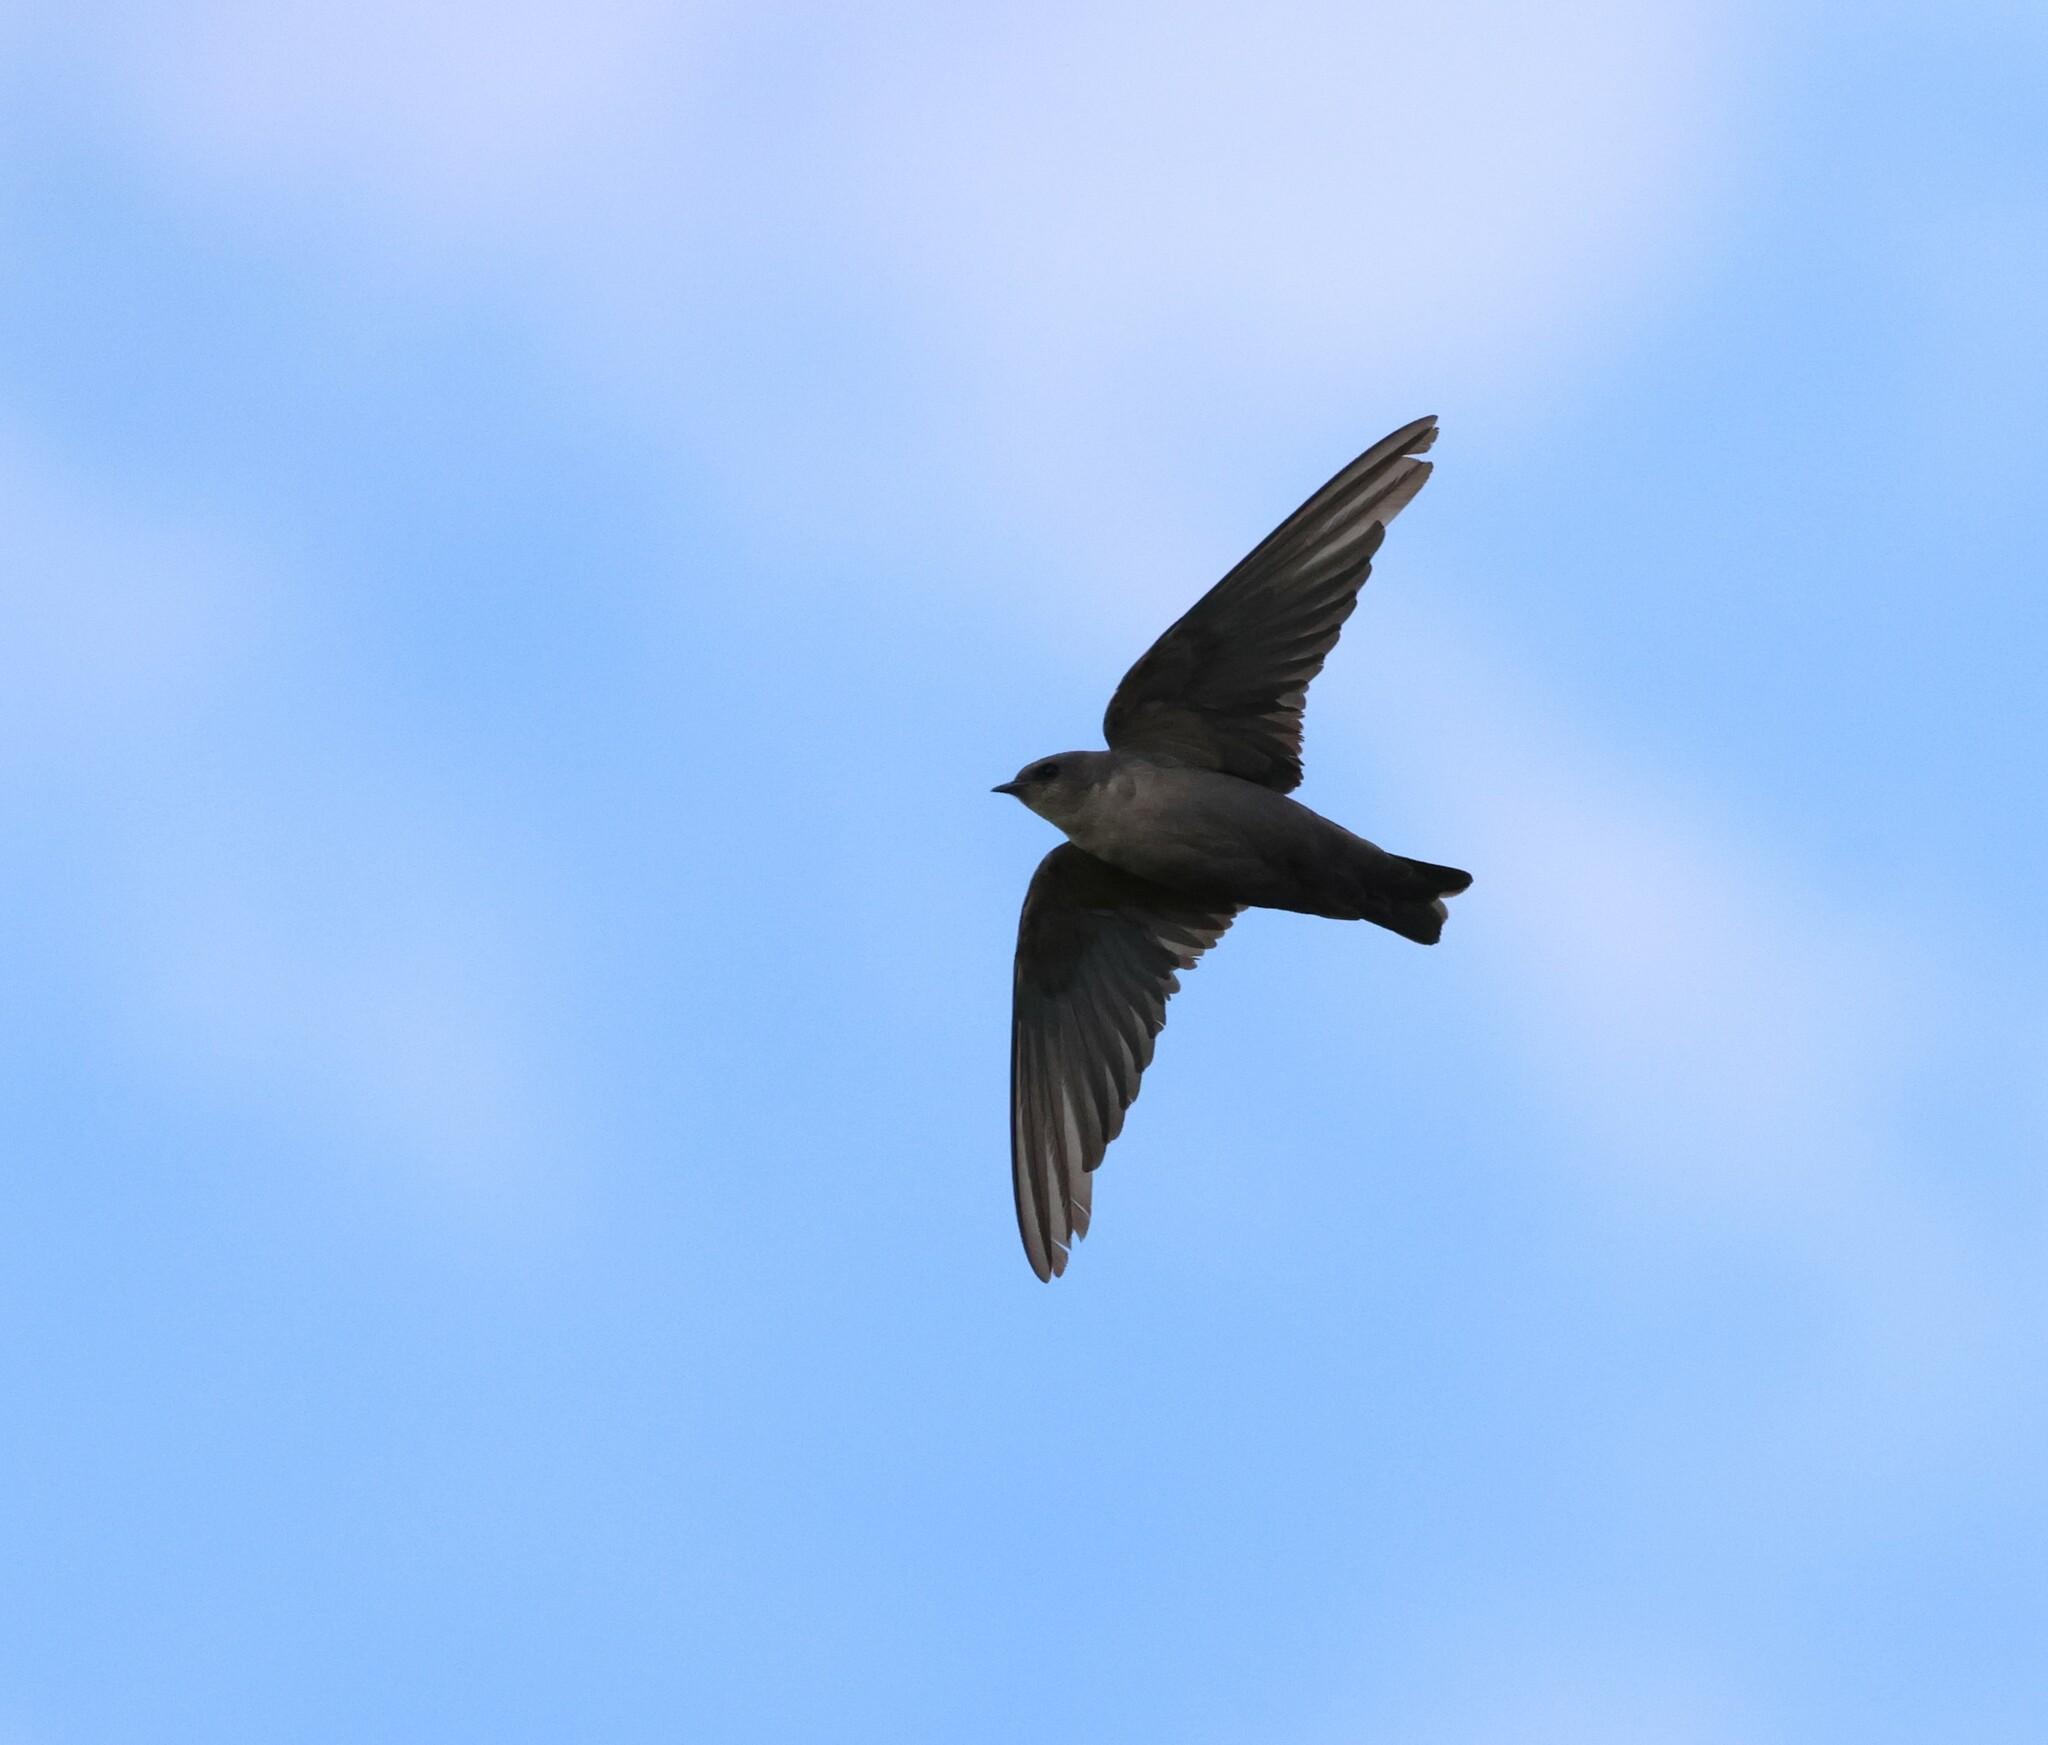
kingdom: Animalia
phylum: Chordata
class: Aves
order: Passeriformes
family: Hirundinidae
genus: Ptyonoprogne
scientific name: Ptyonoprogne fuligula
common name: Rock martin
